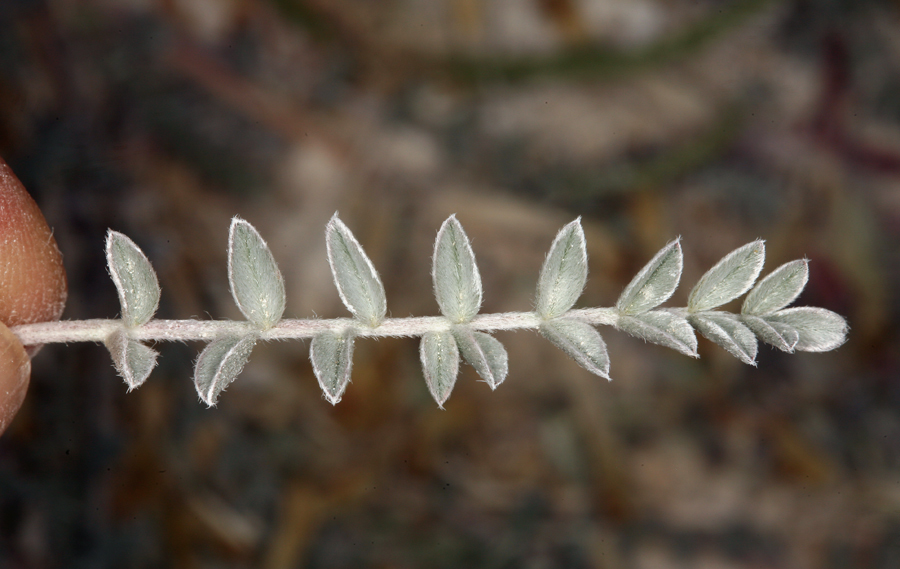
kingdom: Plantae
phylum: Tracheophyta
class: Magnoliopsida
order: Fabales
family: Fabaceae
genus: Astragalus
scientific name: Astragalus argophyllus
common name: Silverleaf milk-vetch
